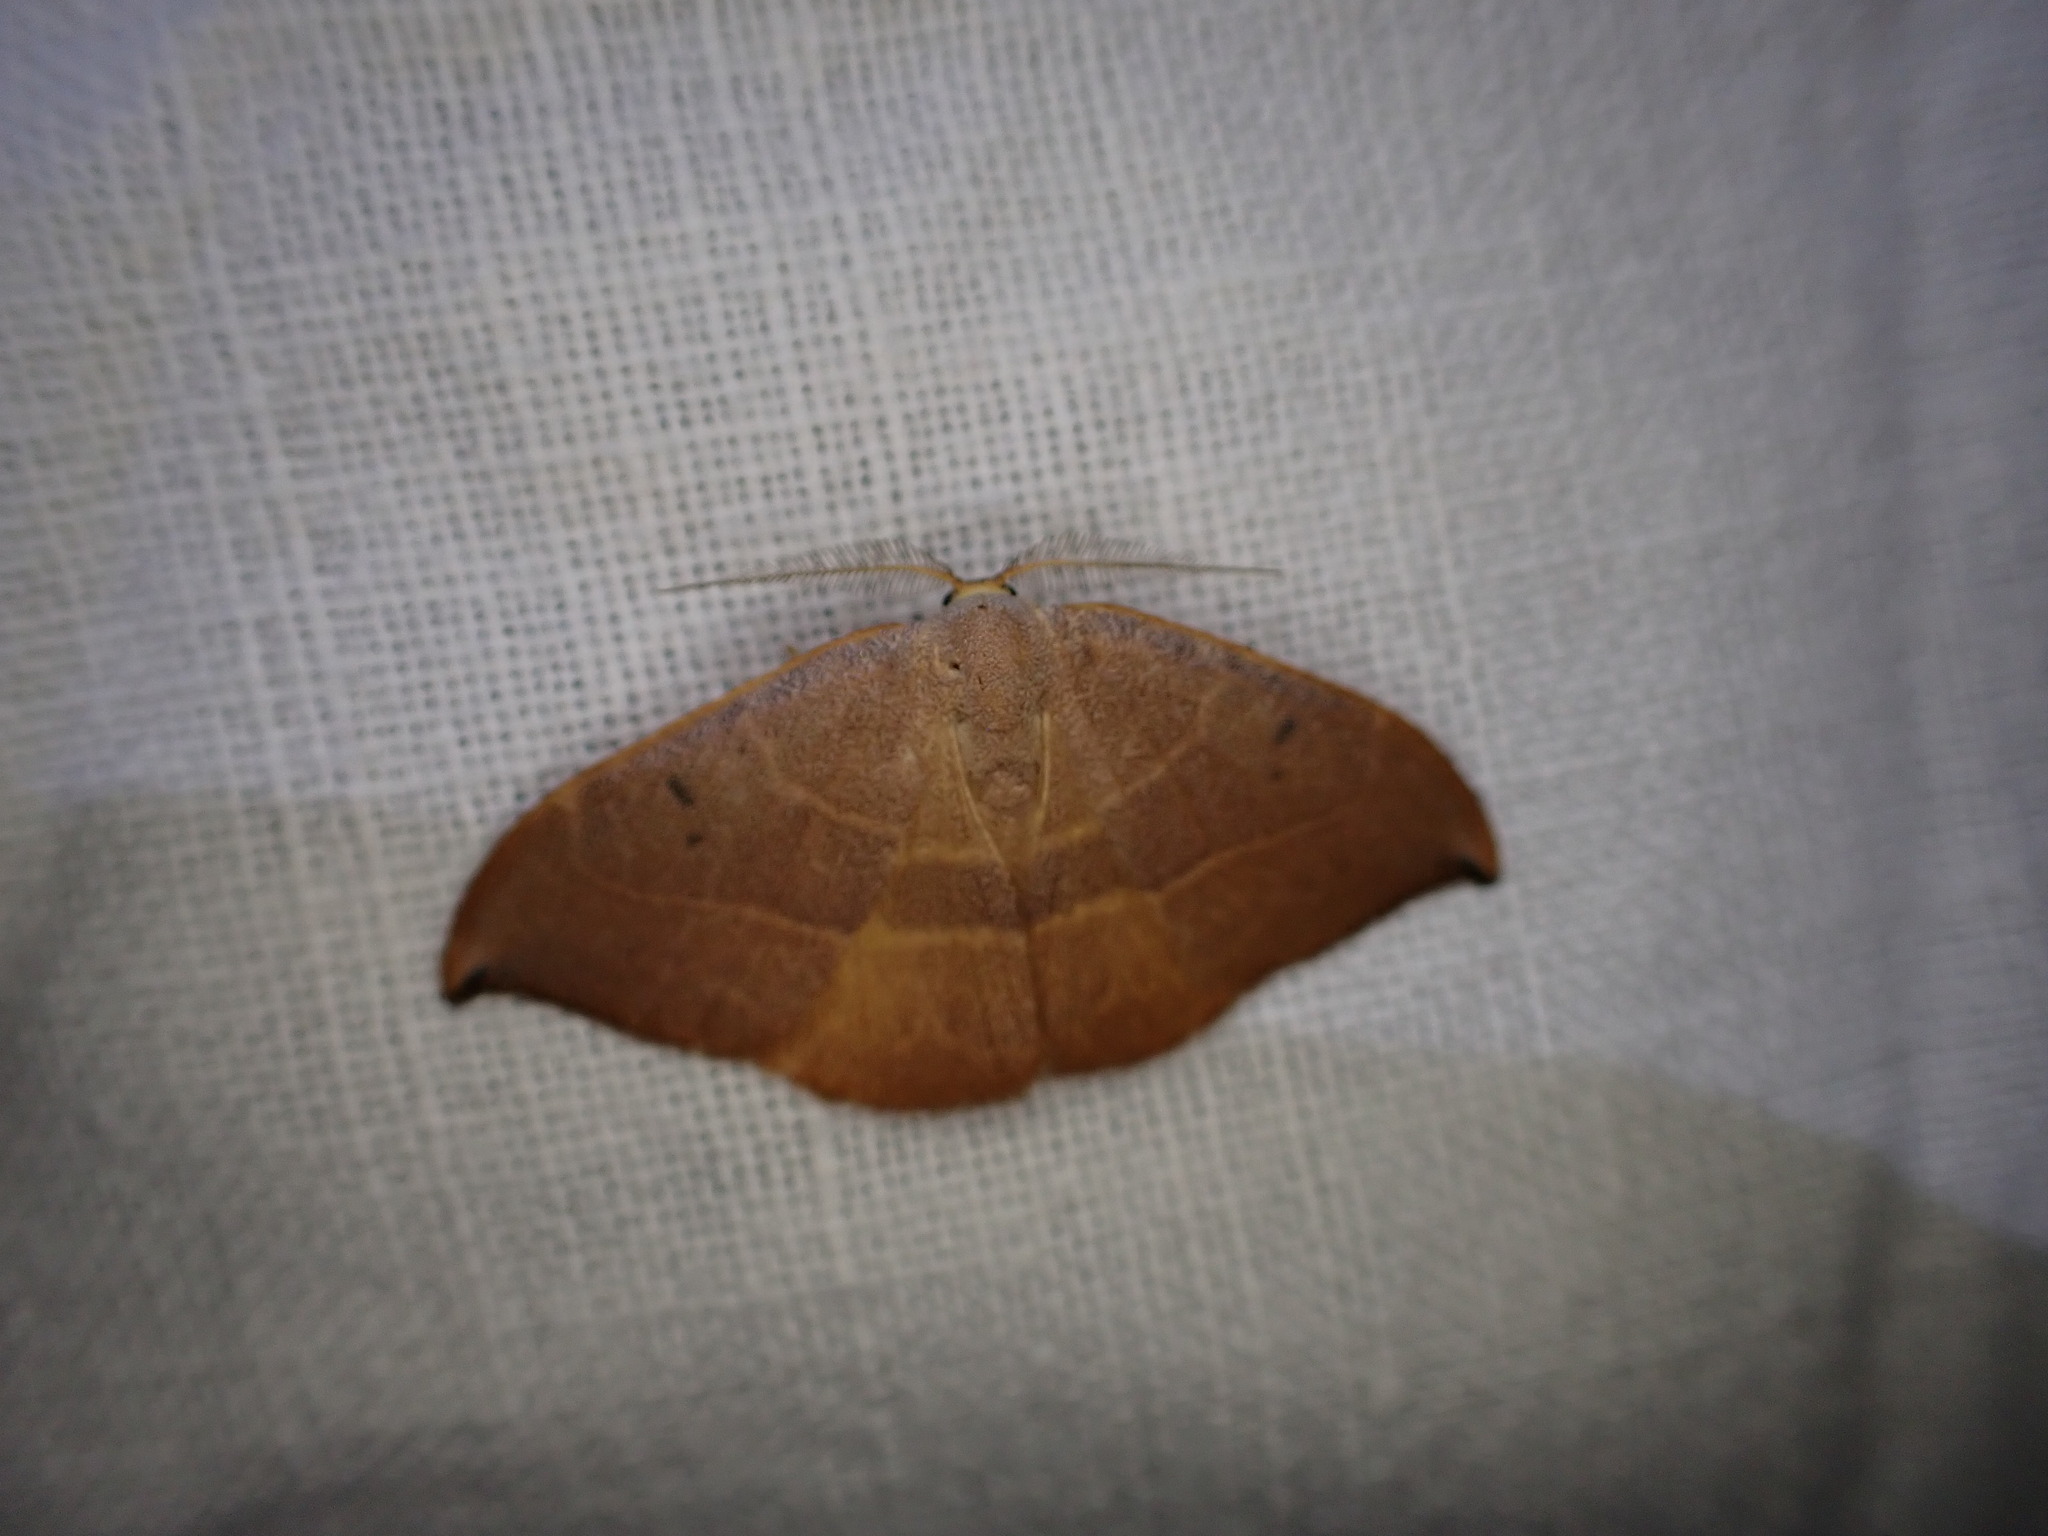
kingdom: Animalia
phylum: Arthropoda
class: Insecta
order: Lepidoptera
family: Drepanidae
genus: Watsonalla
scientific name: Watsonalla uncinula
